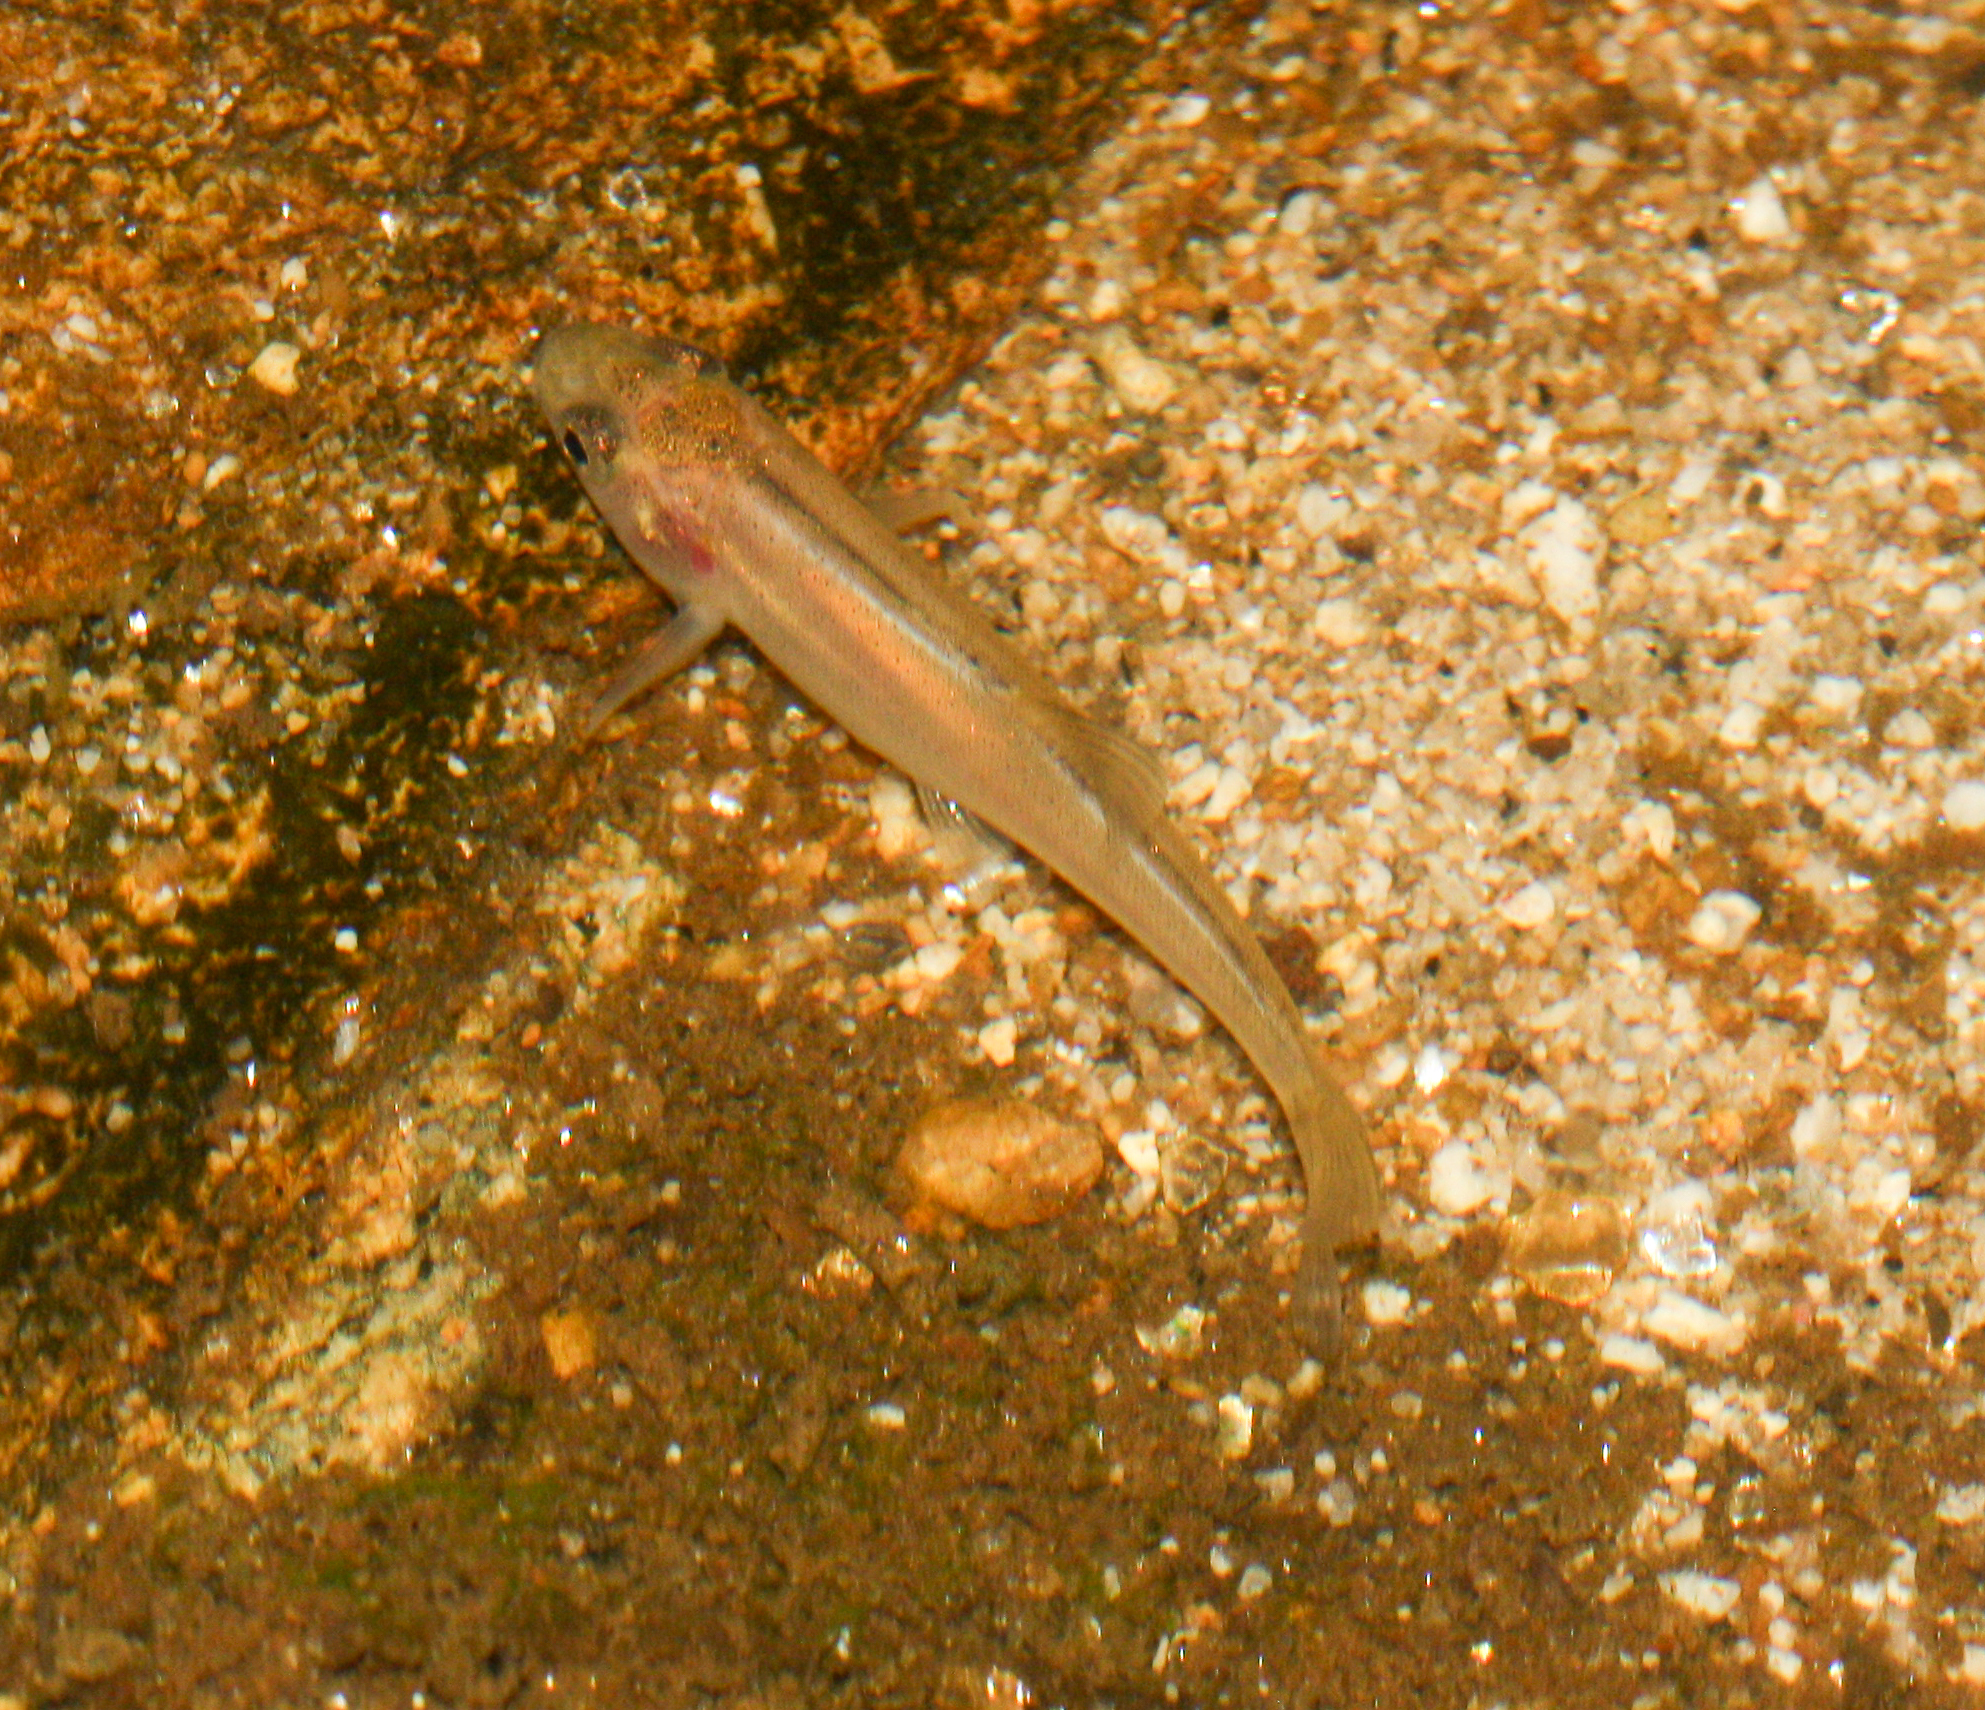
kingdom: Animalia
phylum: Chordata
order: Cypriniformes
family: Cyprinidae
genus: Gila
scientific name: Gila robusta
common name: Roundtail chub
